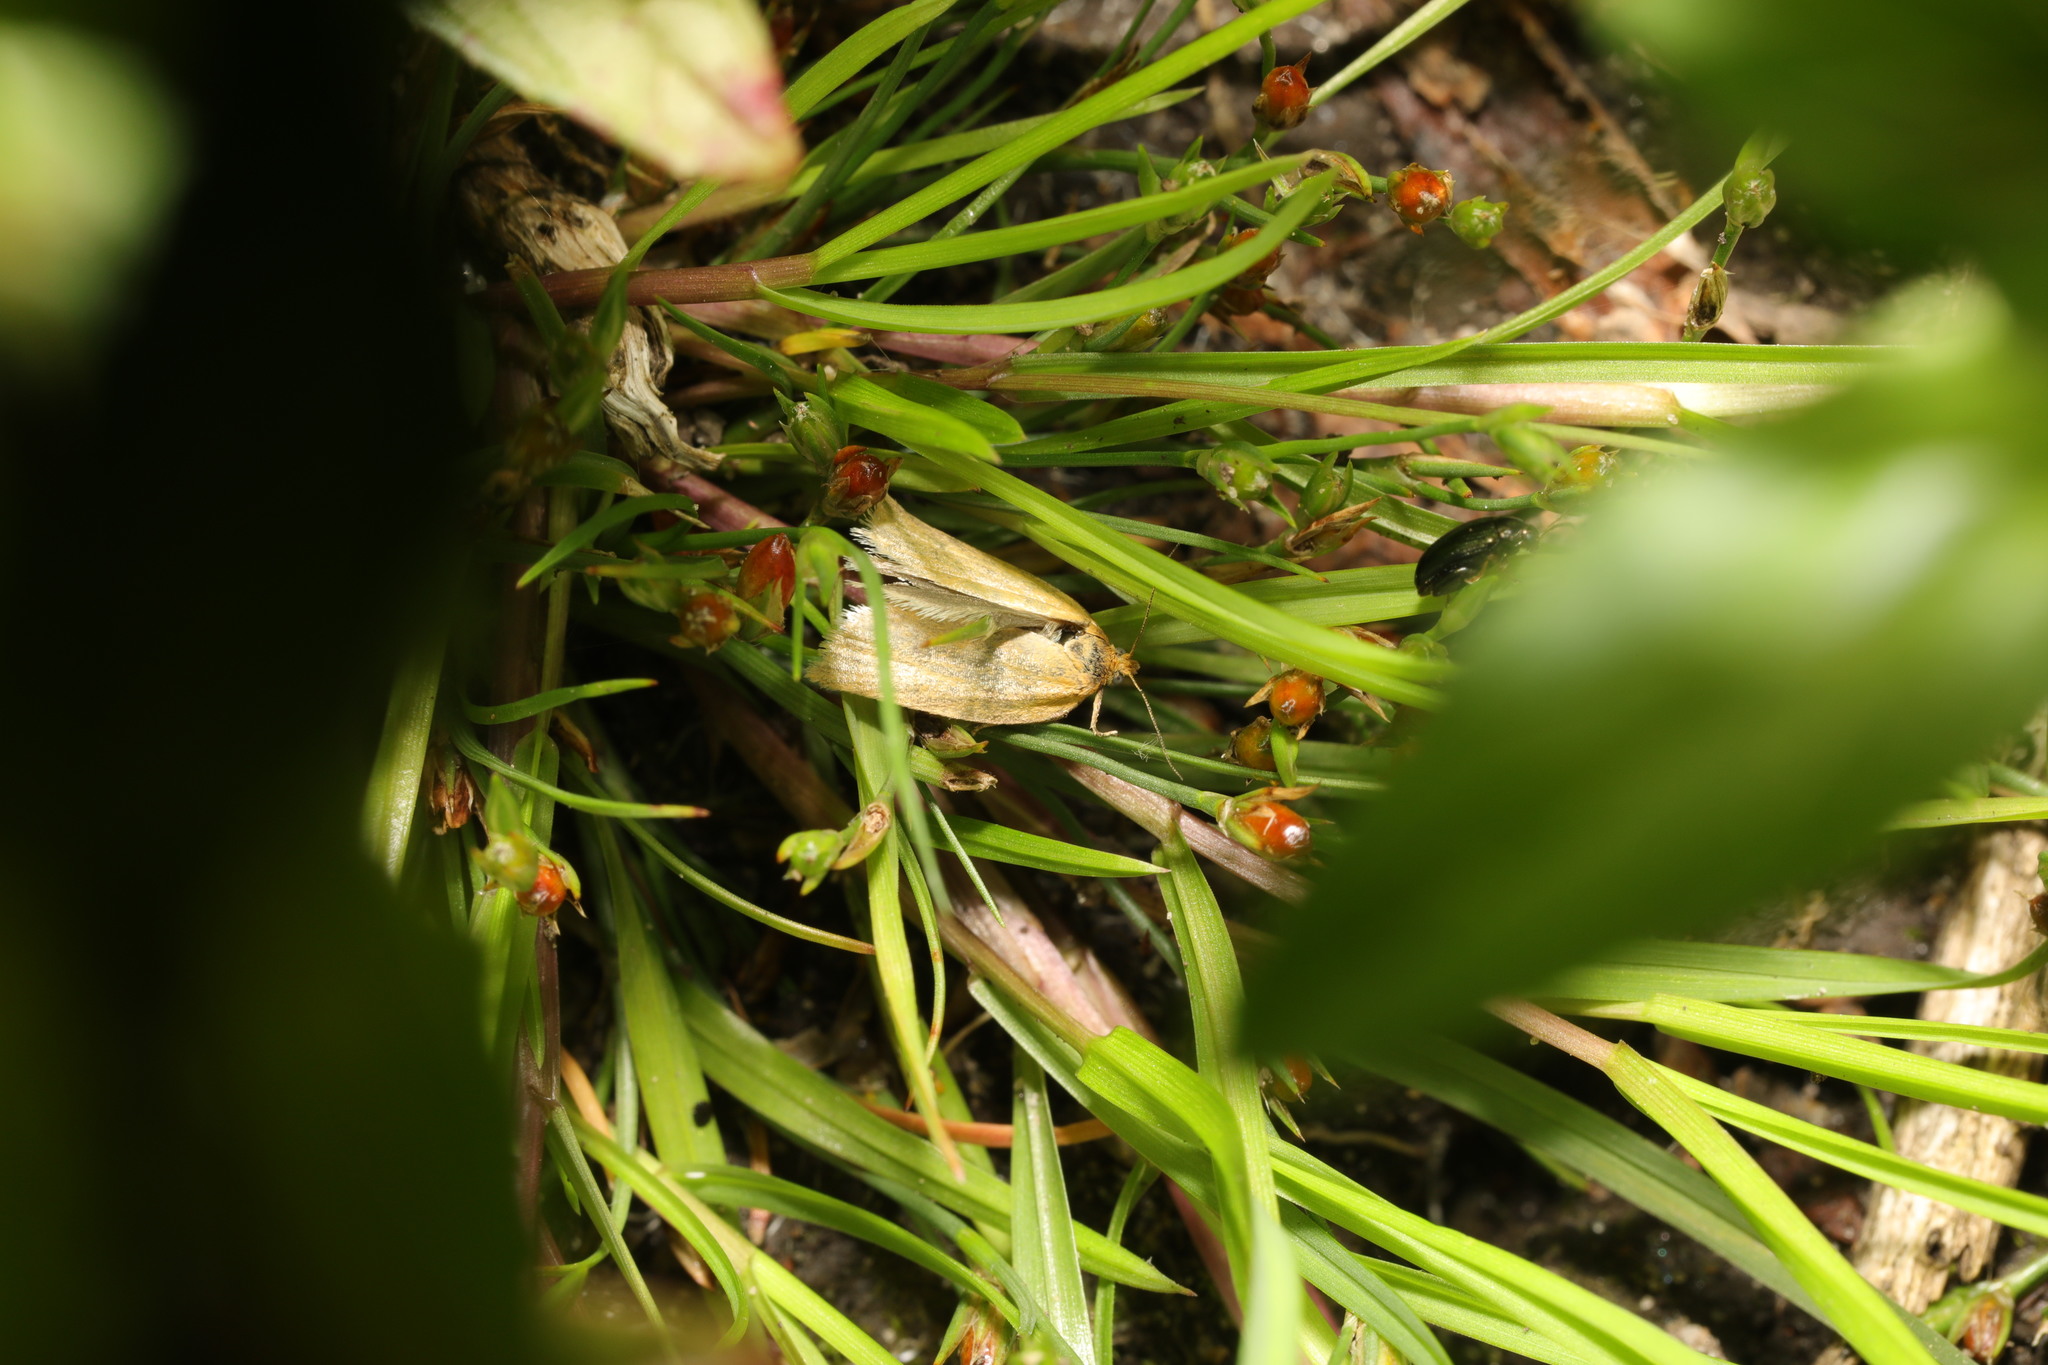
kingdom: Animalia
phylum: Arthropoda
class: Insecta
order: Lepidoptera
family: Tortricidae
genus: Aphelia
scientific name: Aphelia Zelotherses paleana
